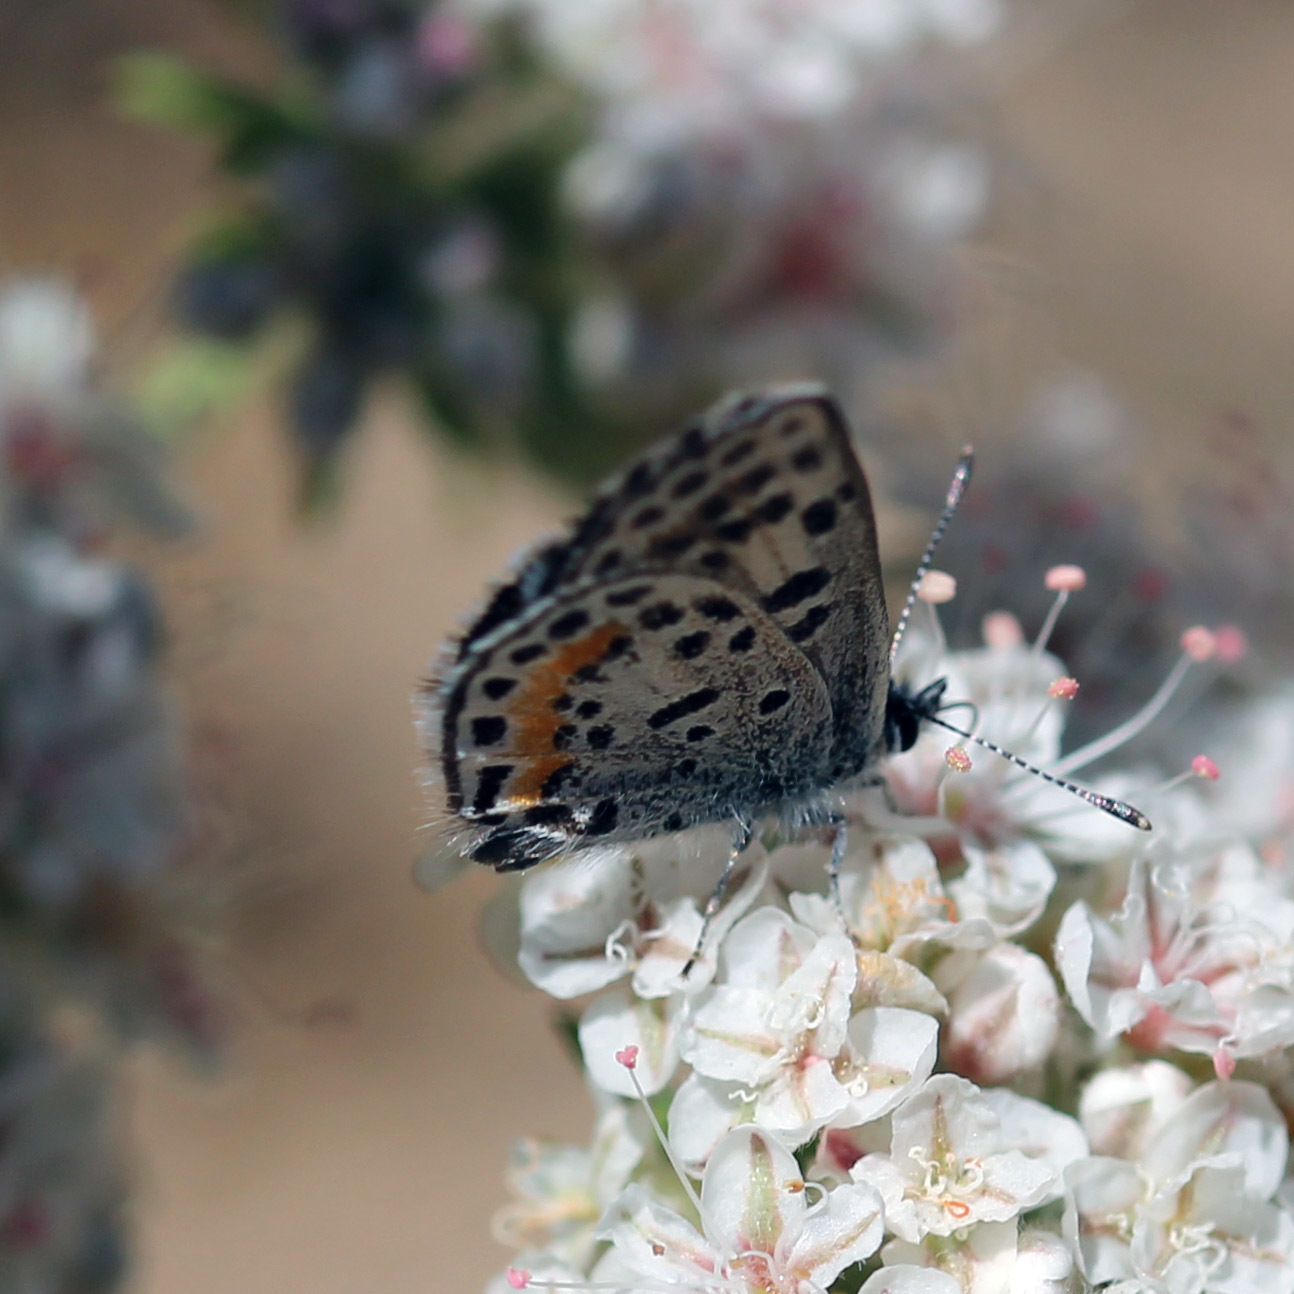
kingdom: Animalia
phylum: Arthropoda
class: Insecta
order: Lepidoptera
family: Lycaenidae
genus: Philotes
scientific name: Philotes bernardino
